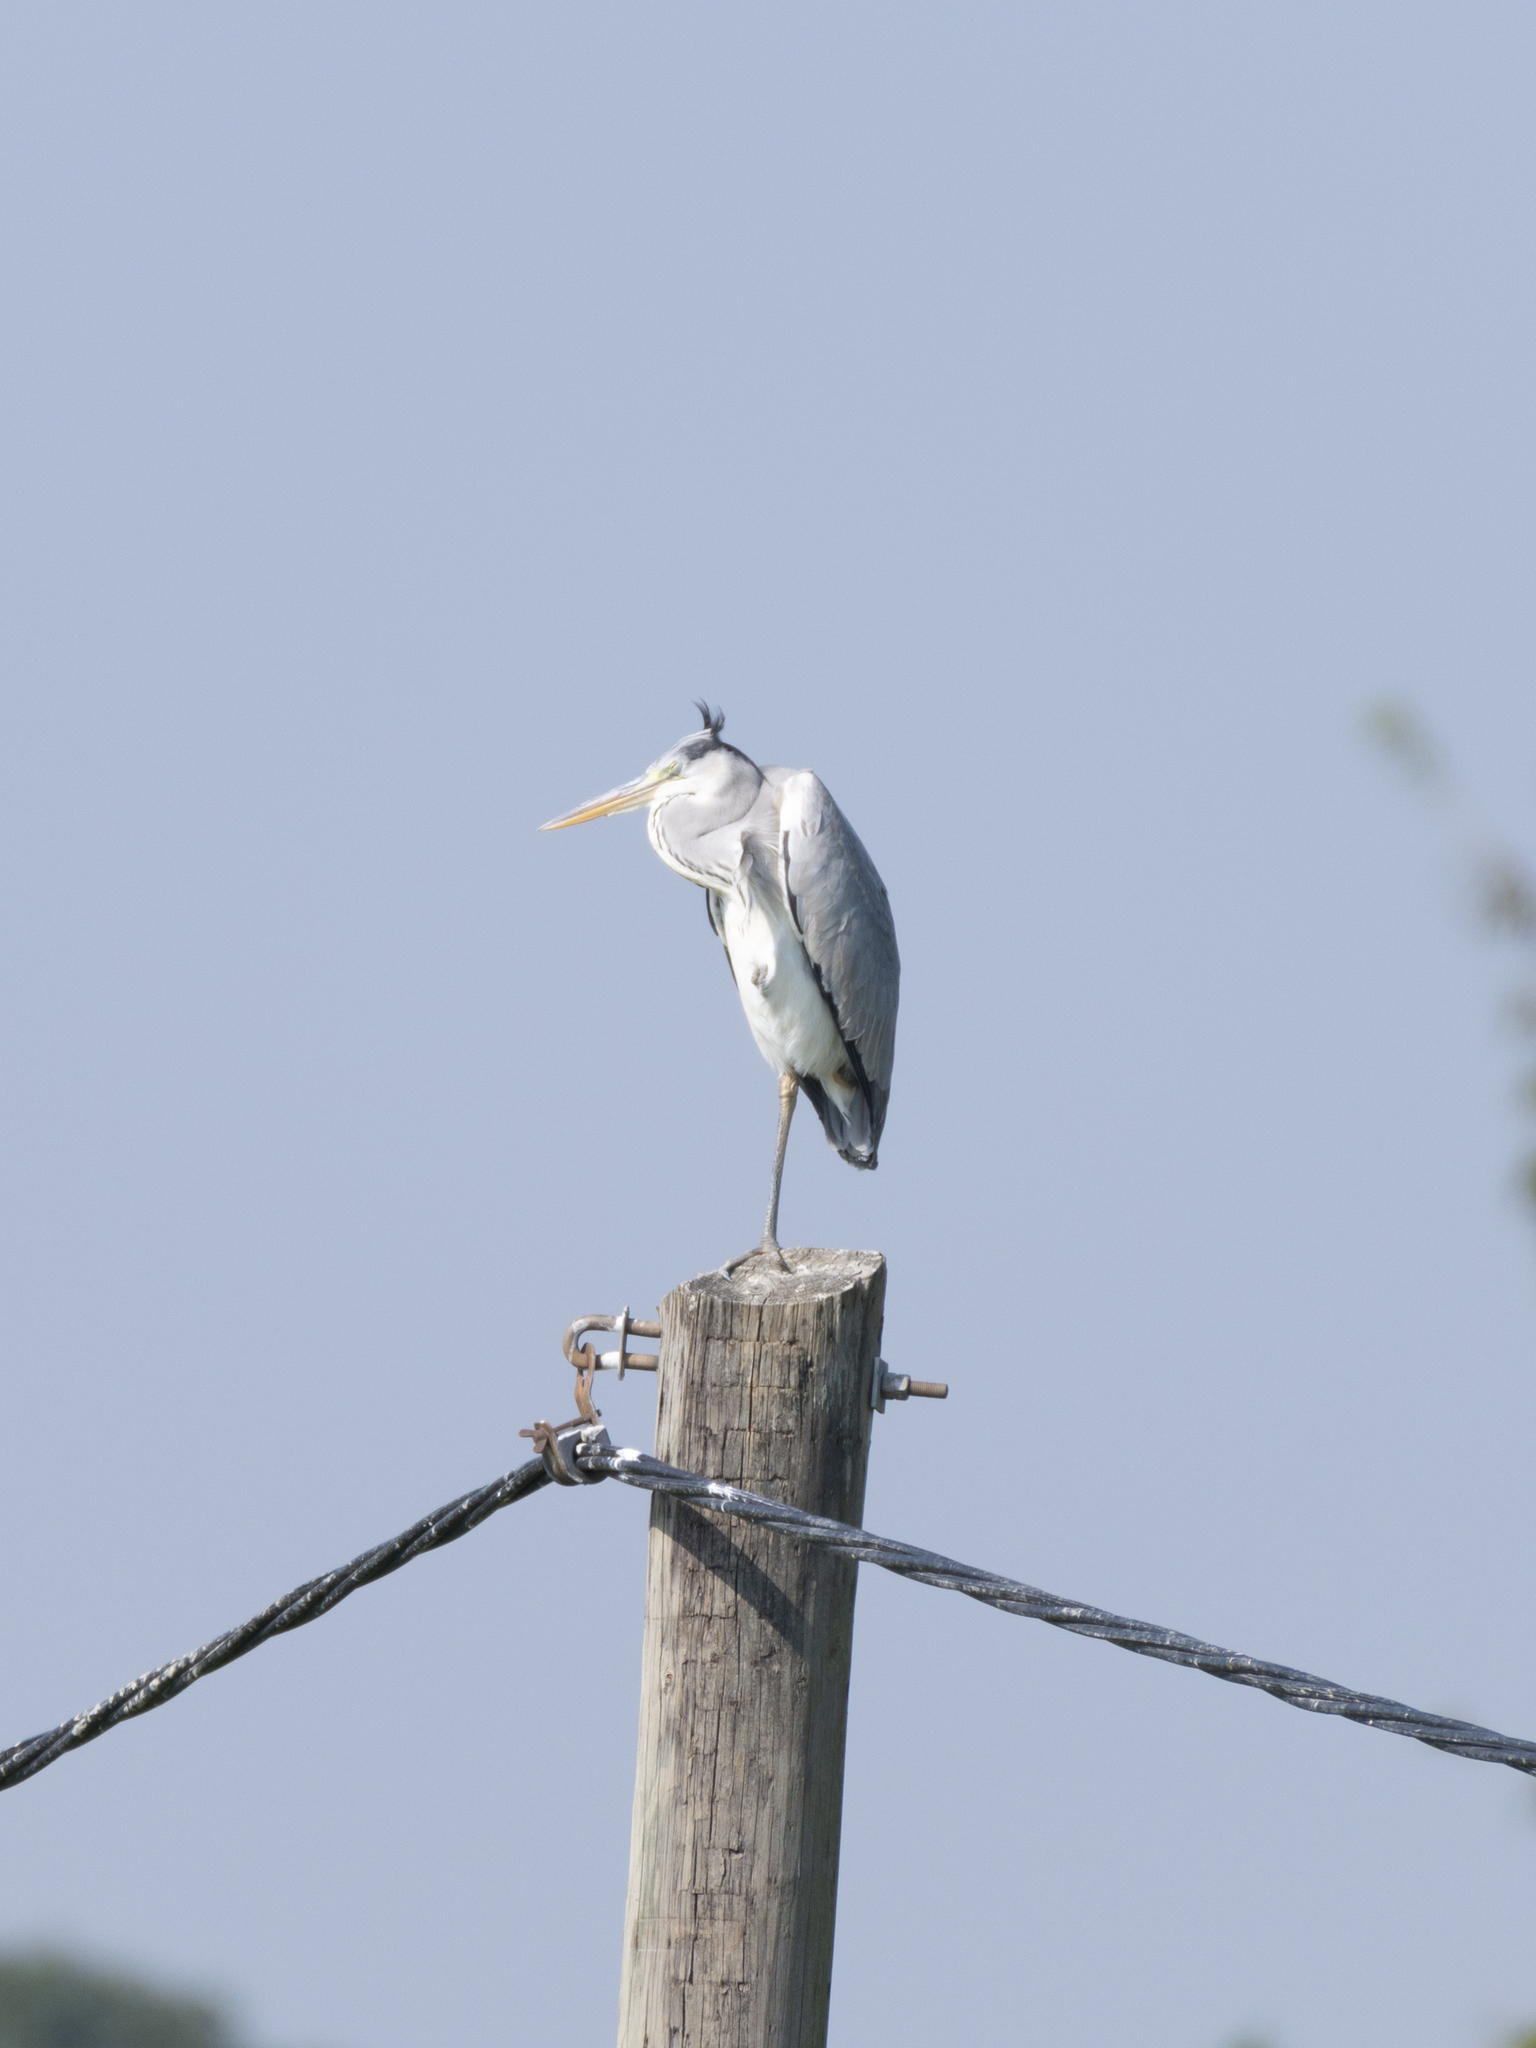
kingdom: Animalia
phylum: Chordata
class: Aves
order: Pelecaniformes
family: Ardeidae
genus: Ardea
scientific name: Ardea cinerea
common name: Grey heron
